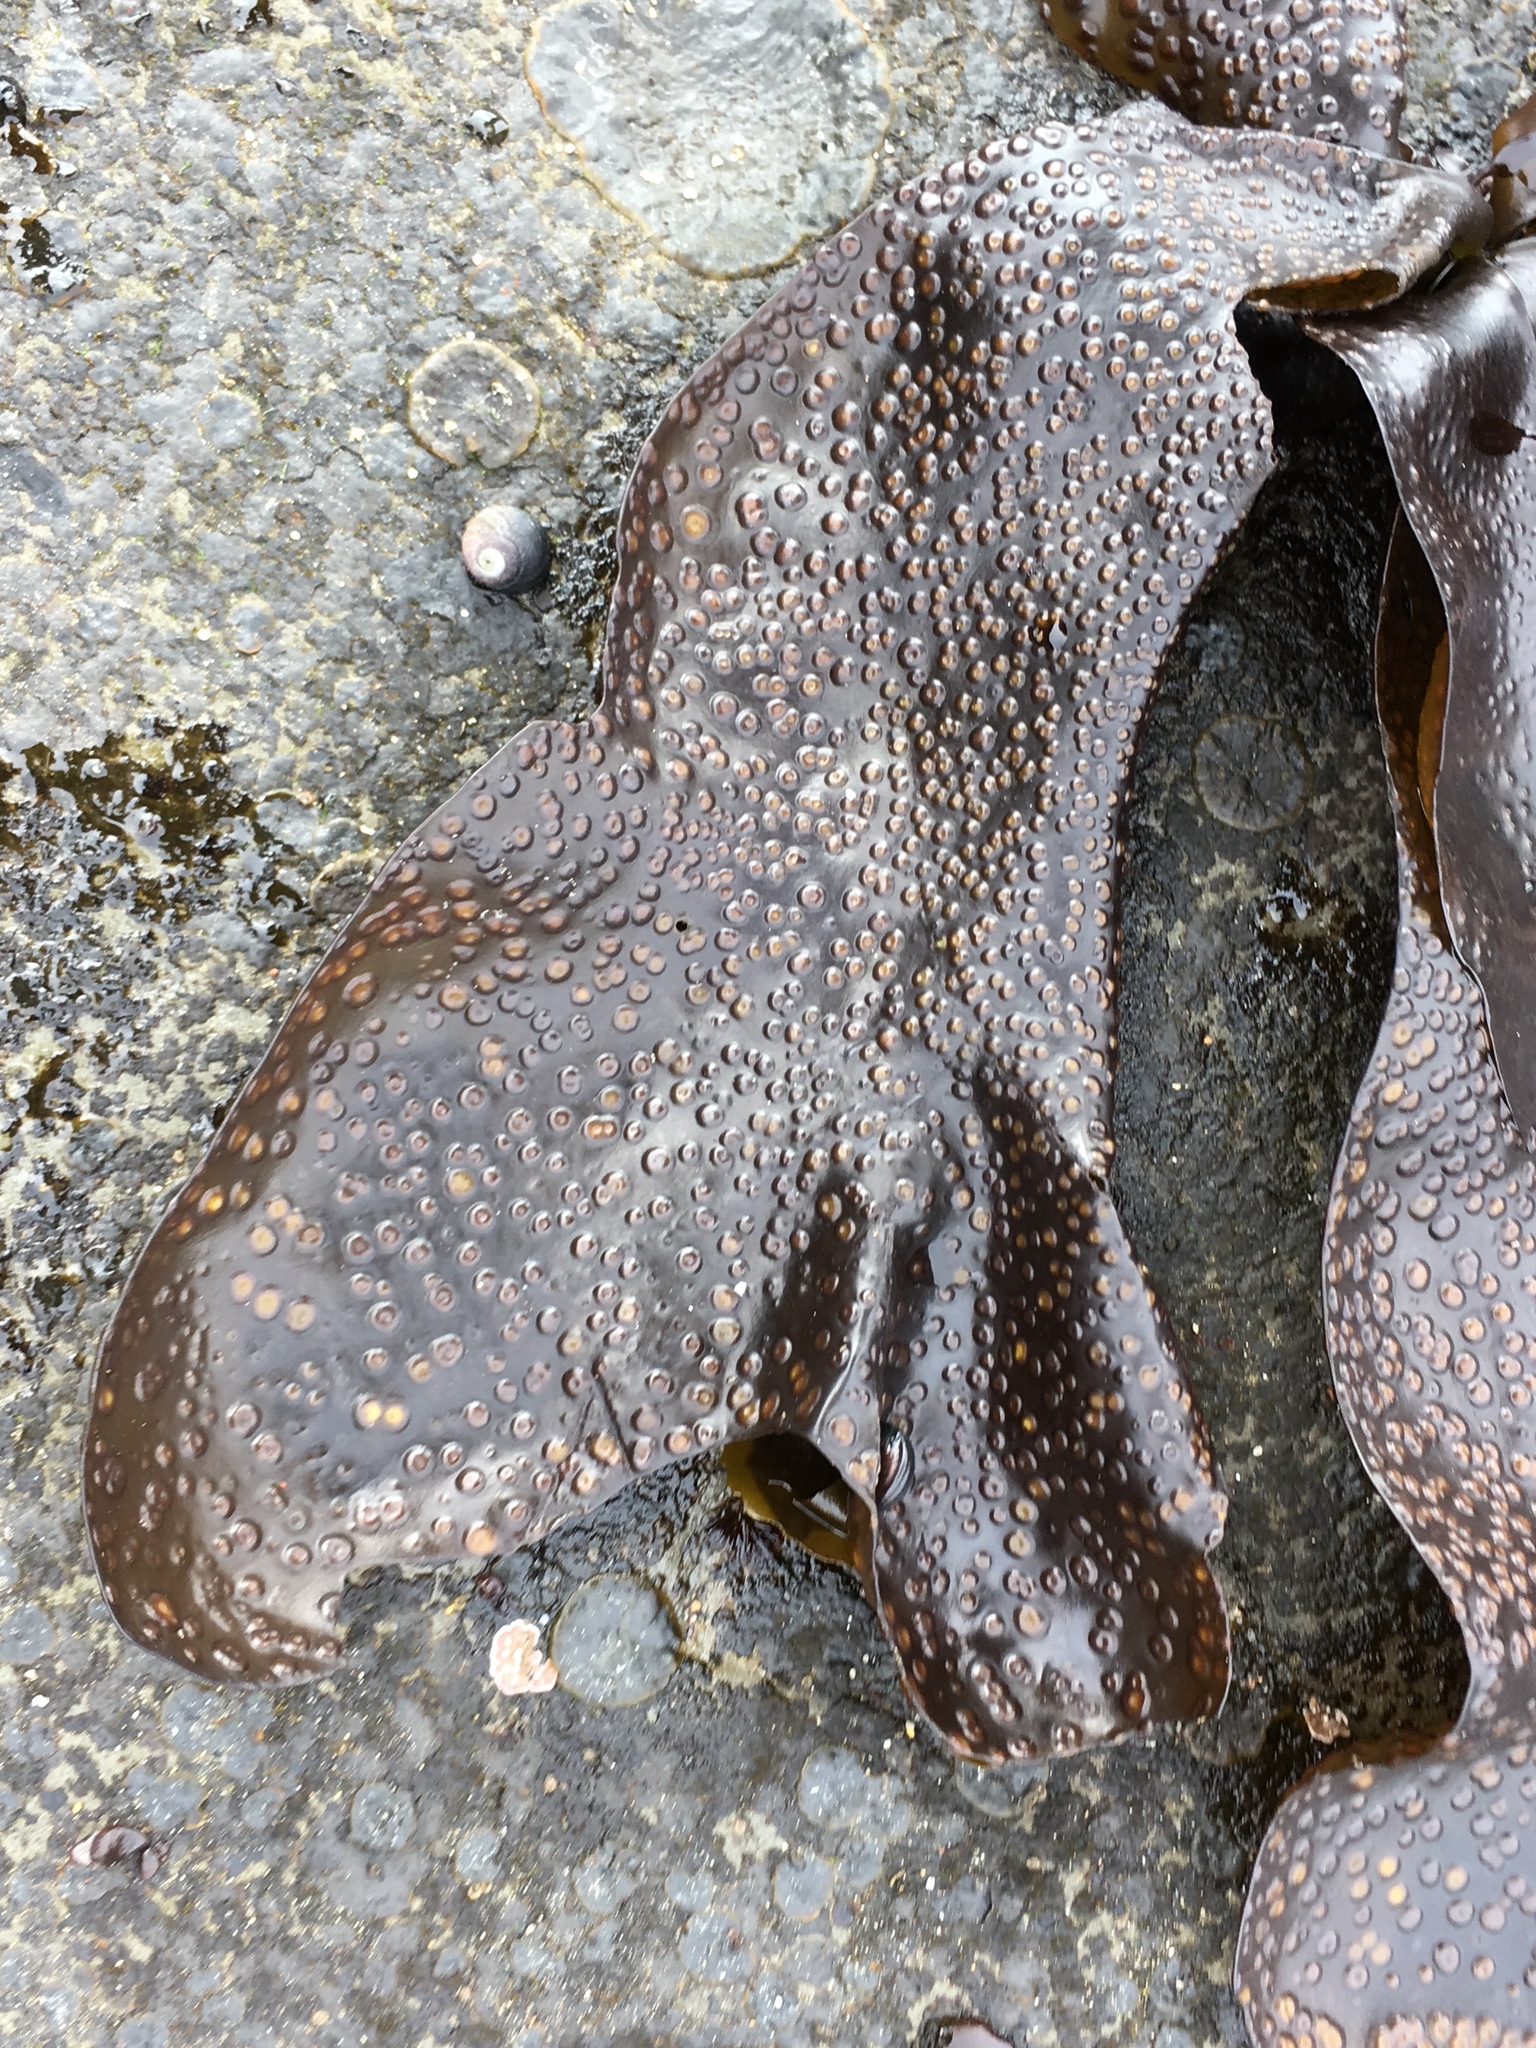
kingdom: Plantae
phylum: Rhodophyta
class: Florideophyceae
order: Gigartinales
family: Gigartinaceae
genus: Mazzaella
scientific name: Mazzaella oregona
